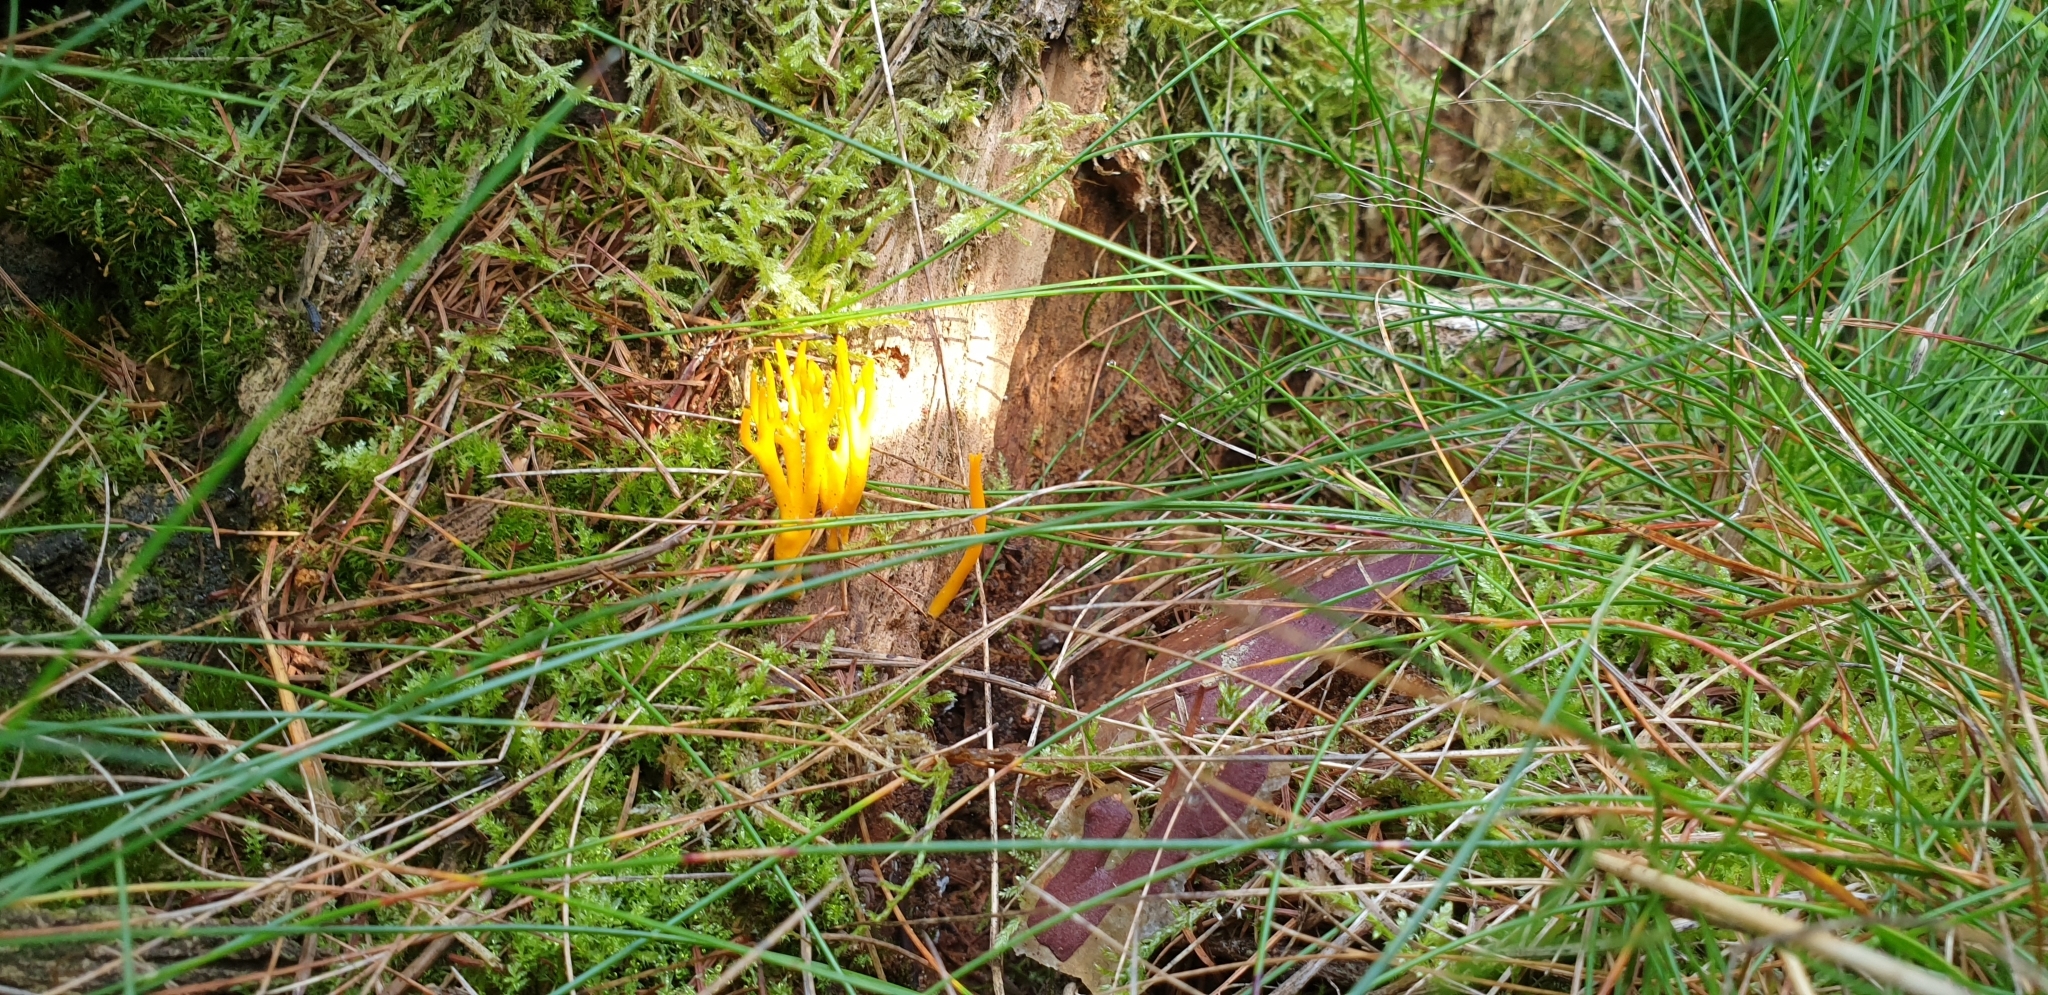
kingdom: Fungi
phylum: Basidiomycota
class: Dacrymycetes
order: Dacrymycetales
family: Dacrymycetaceae
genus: Calocera
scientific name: Calocera viscosa
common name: Yellow stagshorn
